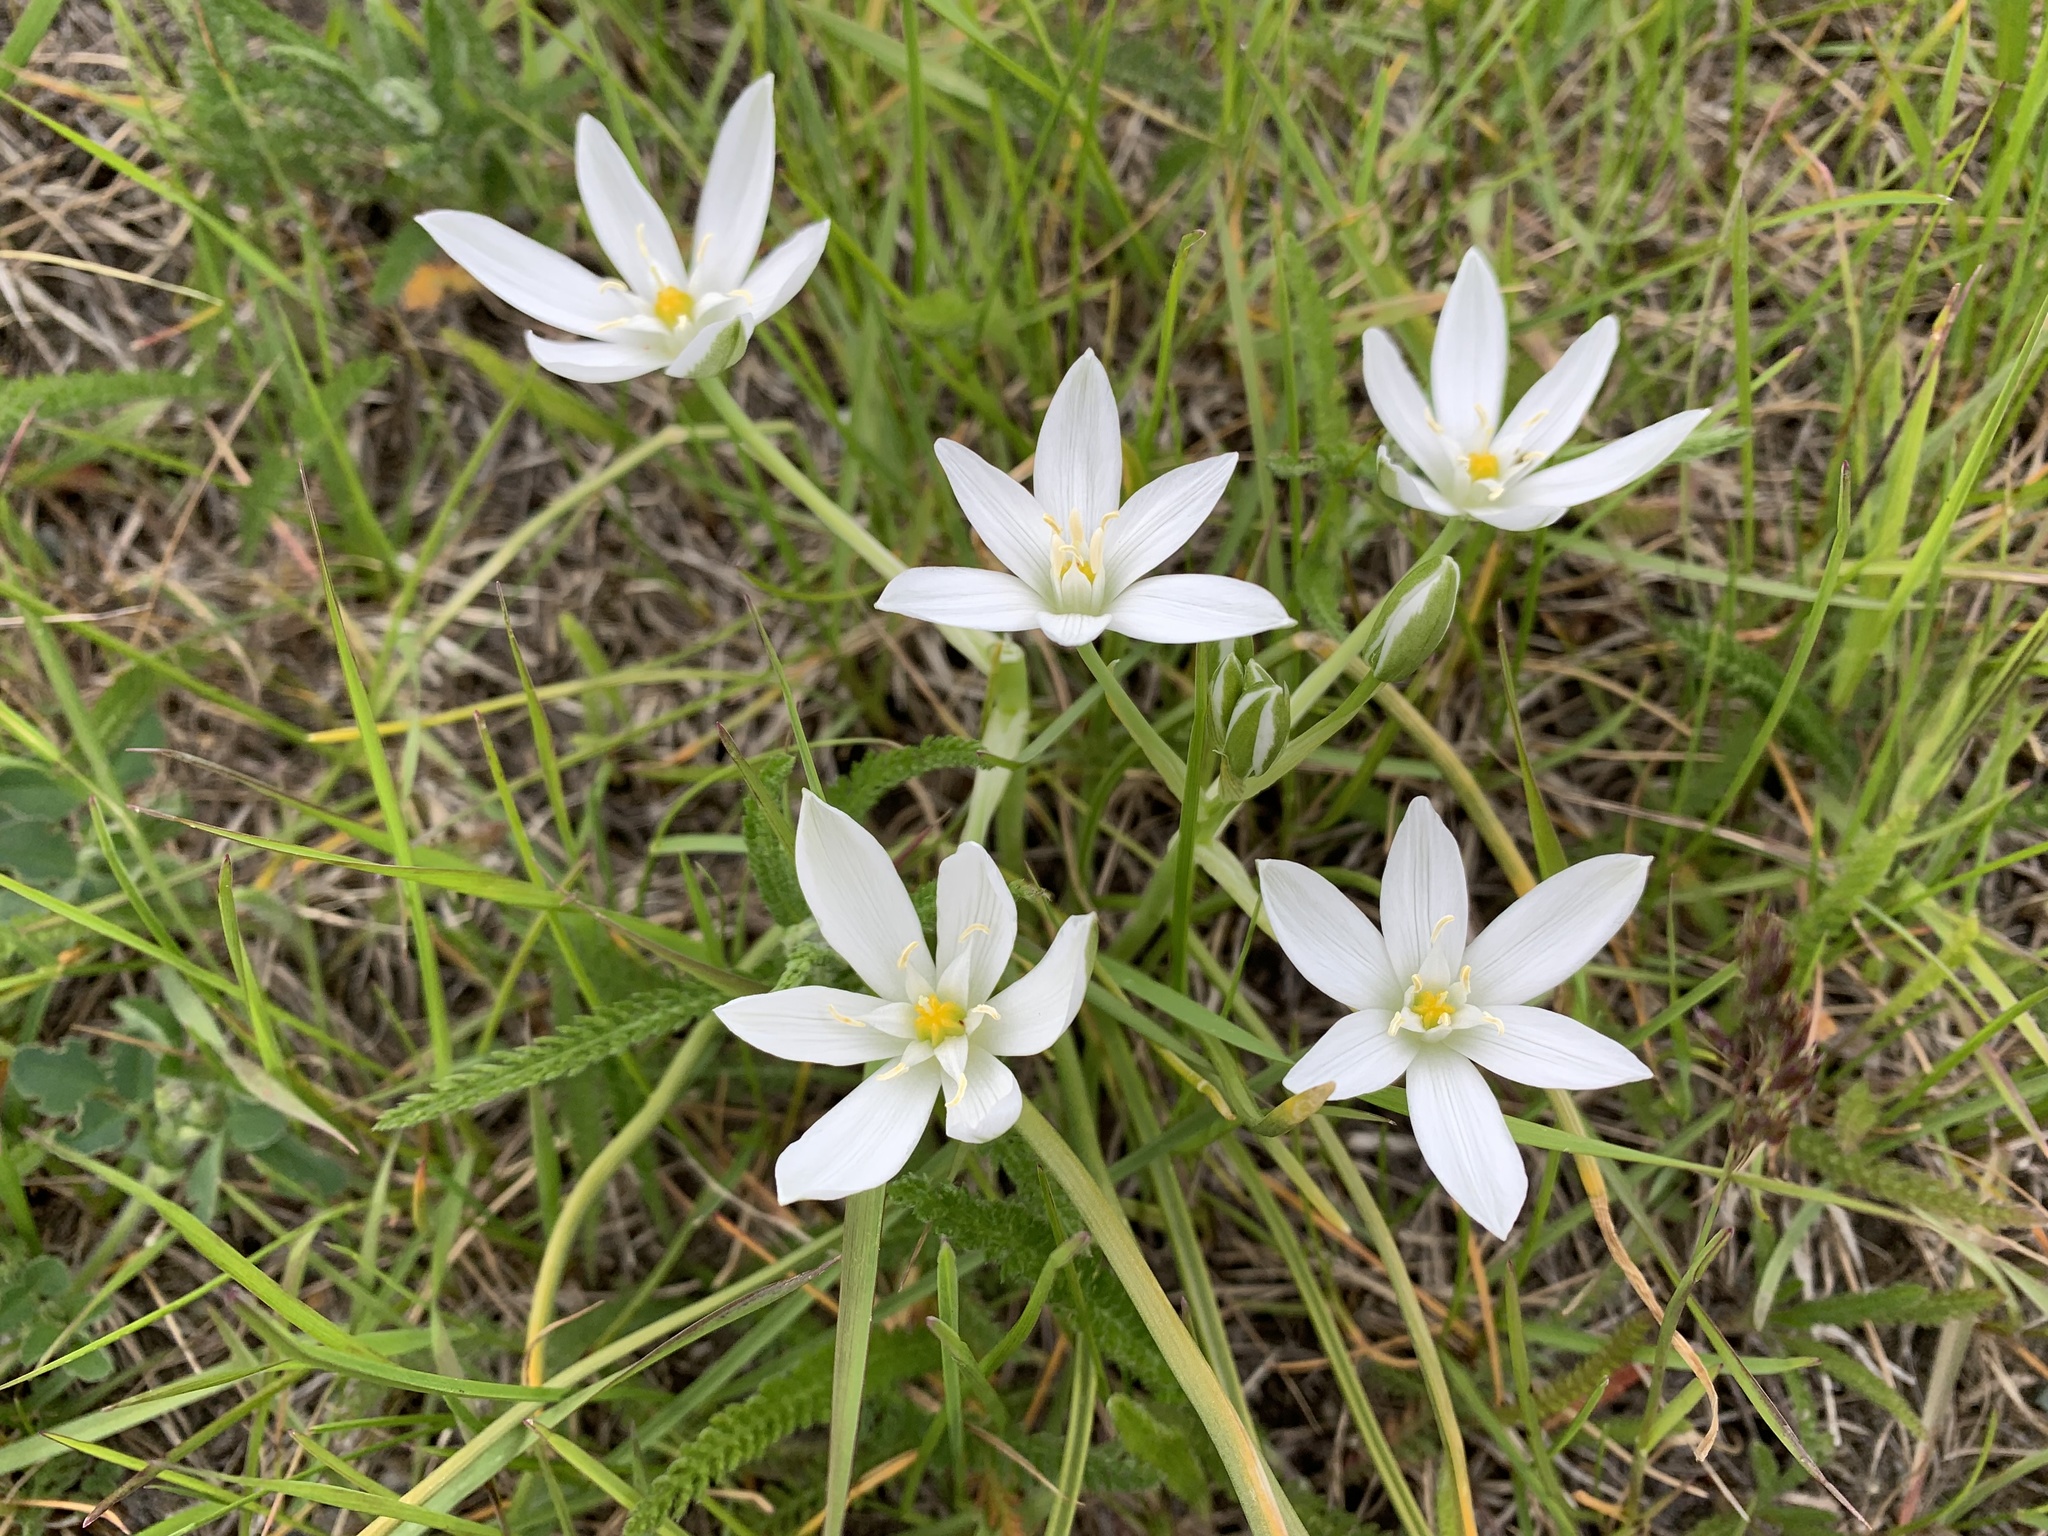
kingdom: Plantae
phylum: Tracheophyta
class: Liliopsida
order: Asparagales
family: Asparagaceae
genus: Ornithogalum
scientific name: Ornithogalum umbellatum
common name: Garden star-of-bethlehem
